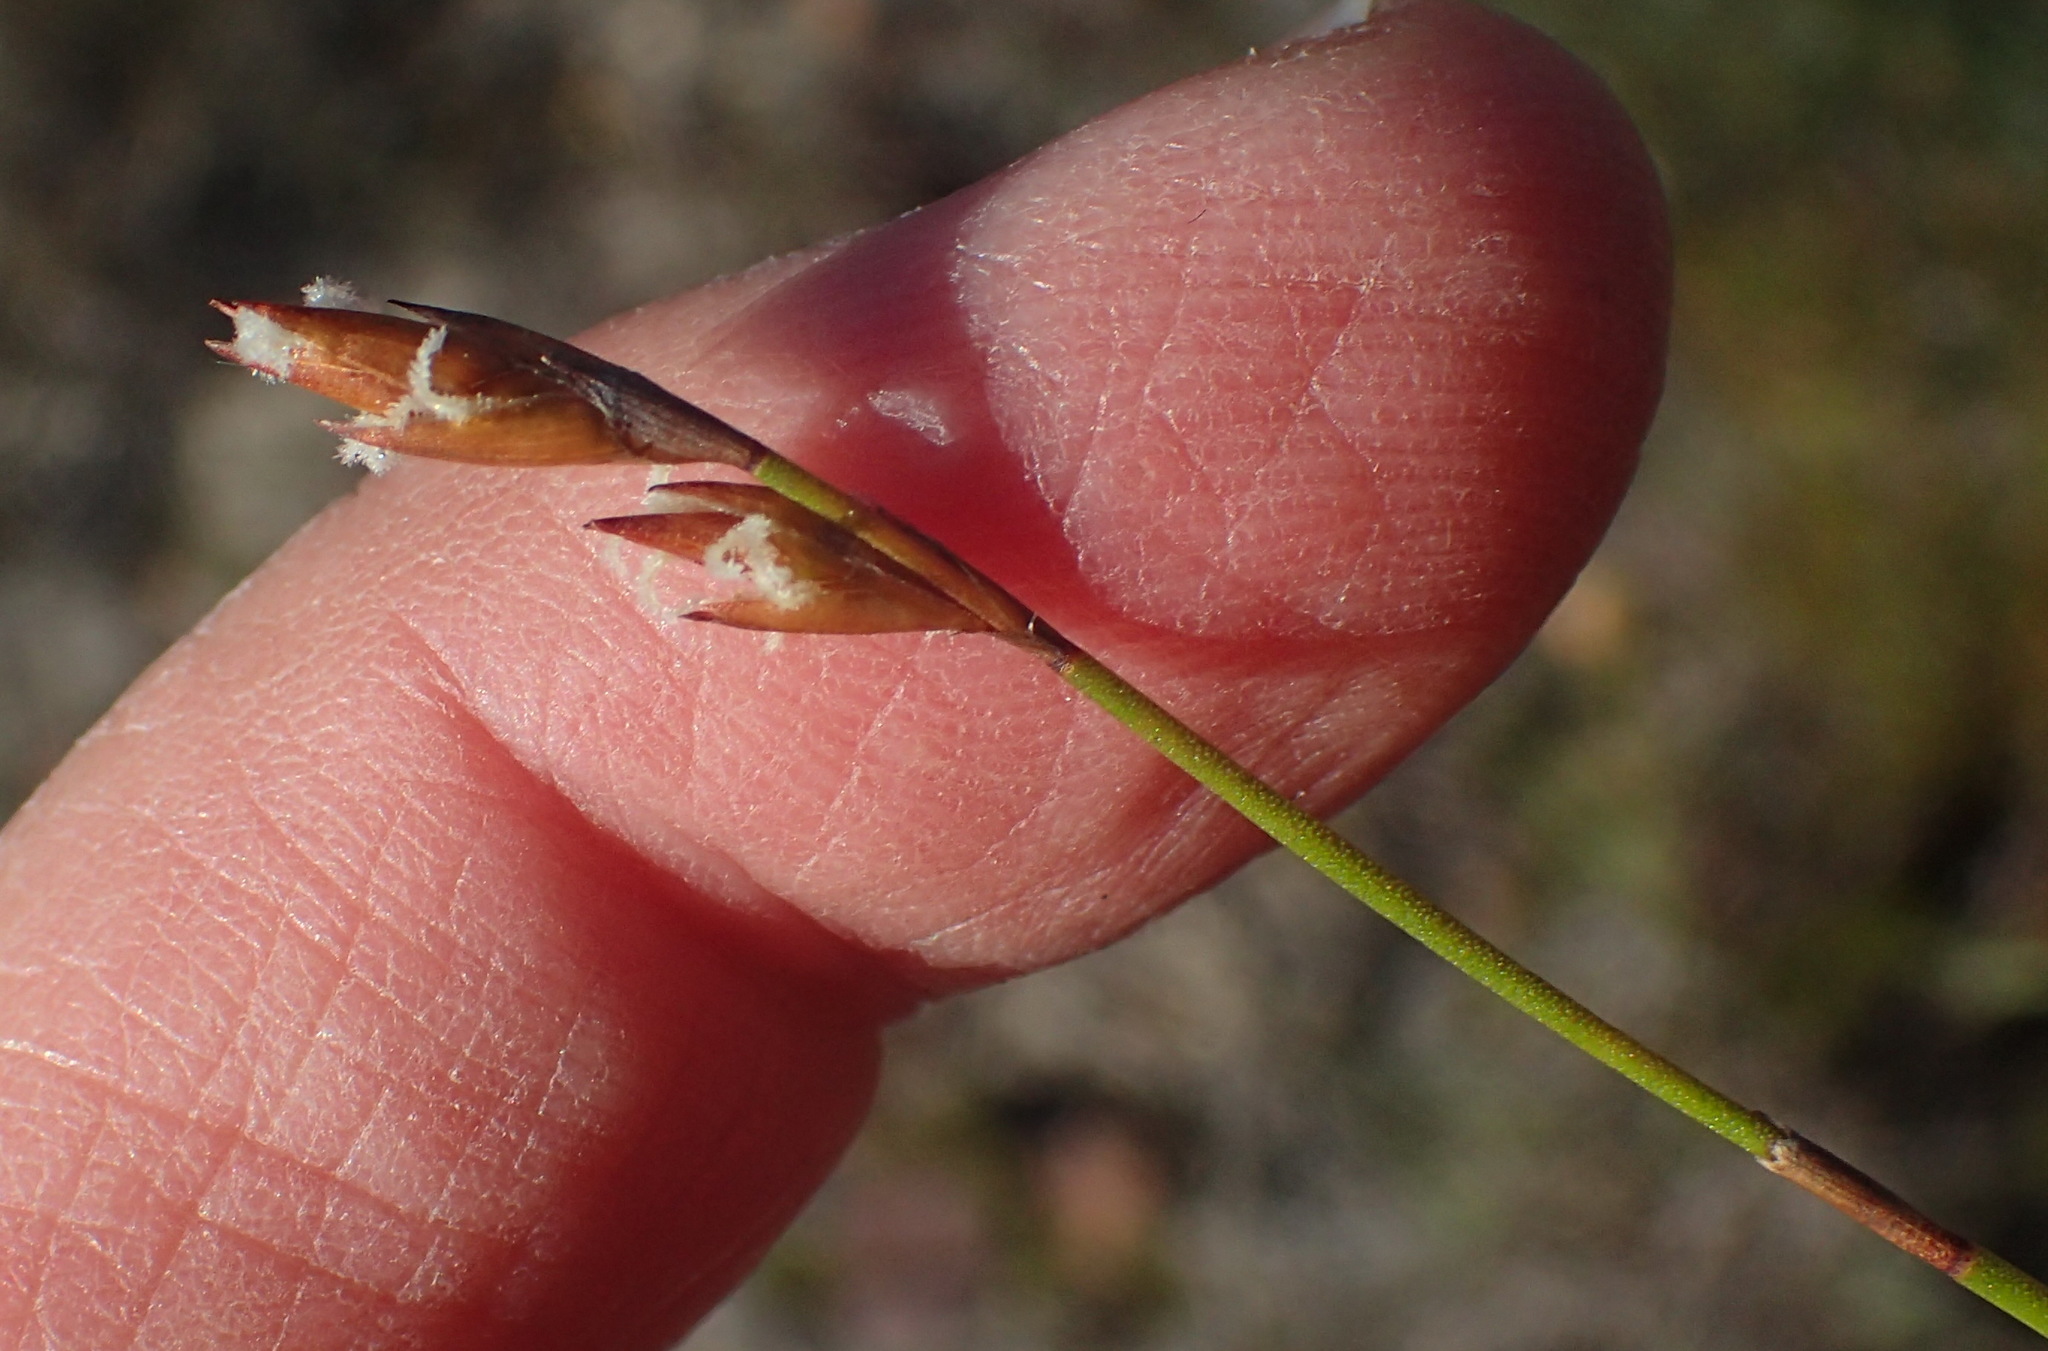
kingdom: Plantae
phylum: Tracheophyta
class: Liliopsida
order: Poales
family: Restionaceae
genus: Restio
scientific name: Restio triticeus
